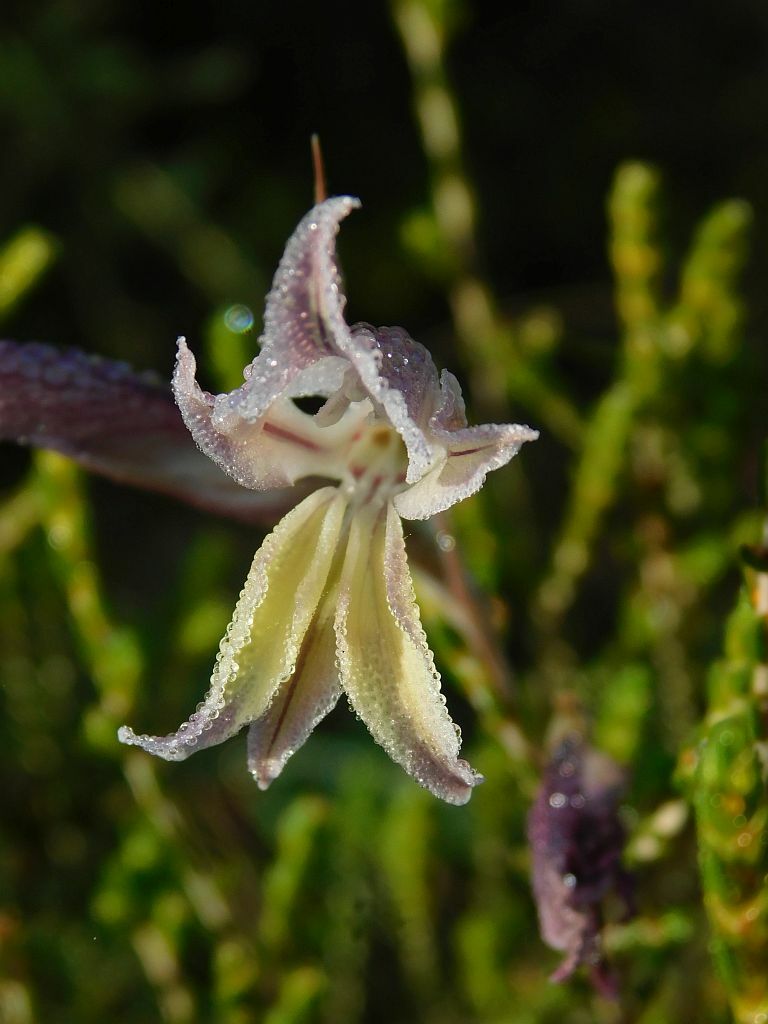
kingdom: Plantae
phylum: Tracheophyta
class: Liliopsida
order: Asparagales
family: Iridaceae
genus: Gladiolus
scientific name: Gladiolus permeabilis
